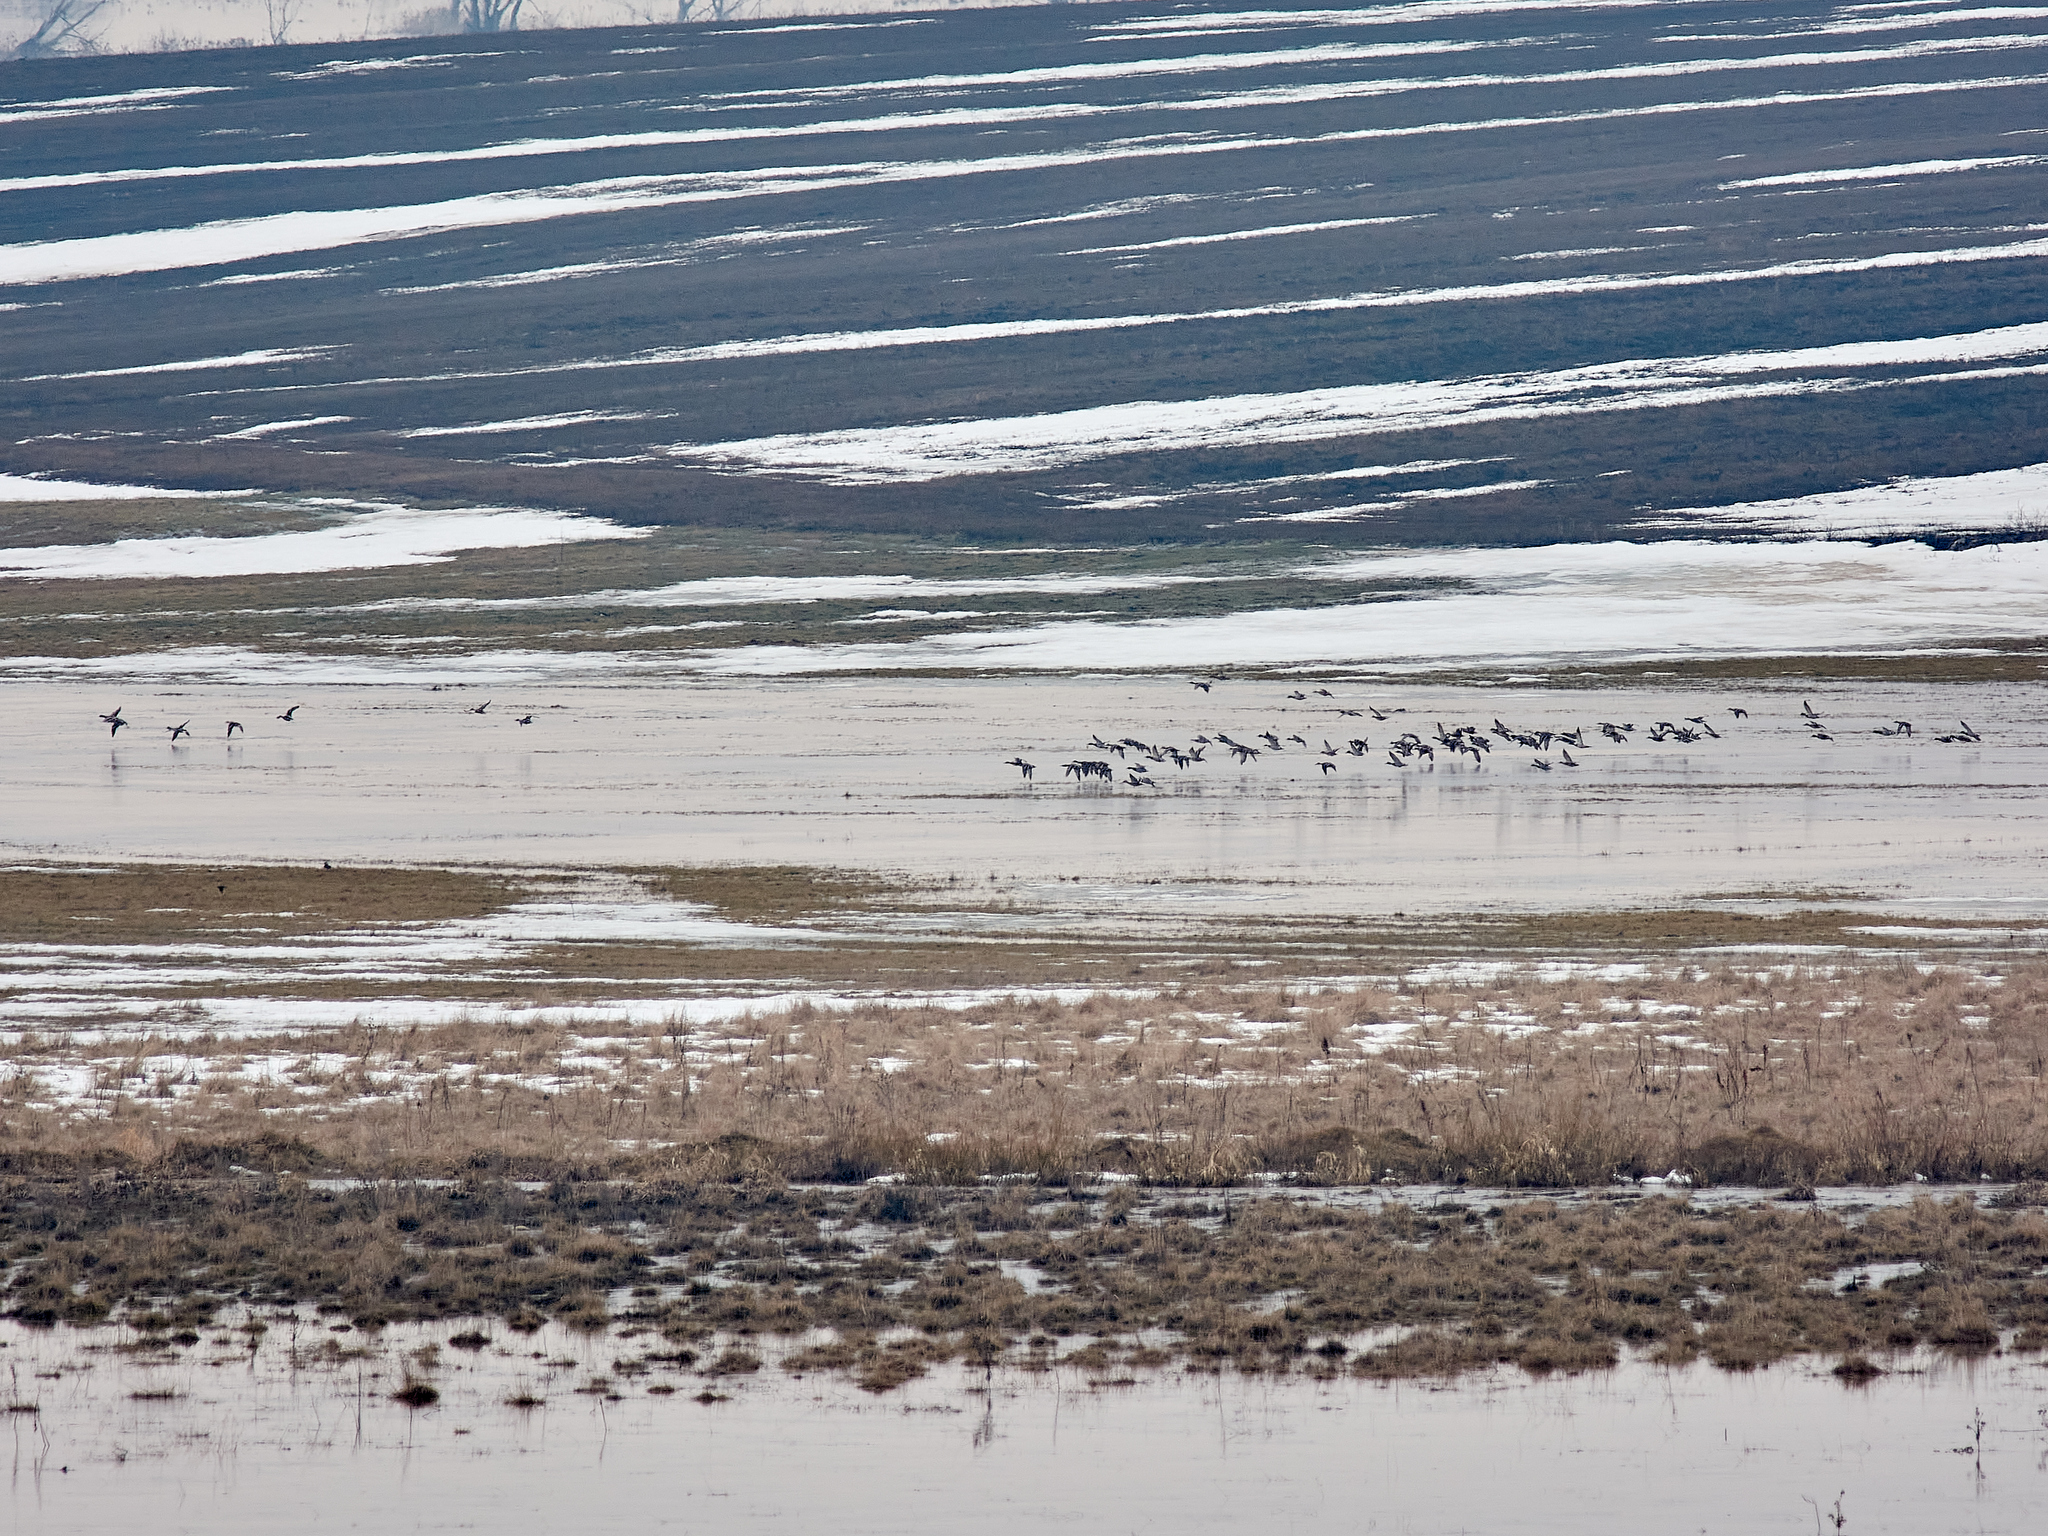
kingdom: Animalia
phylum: Chordata
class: Aves
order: Anseriformes
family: Anatidae
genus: Anas
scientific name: Anas platyrhynchos
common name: Mallard
